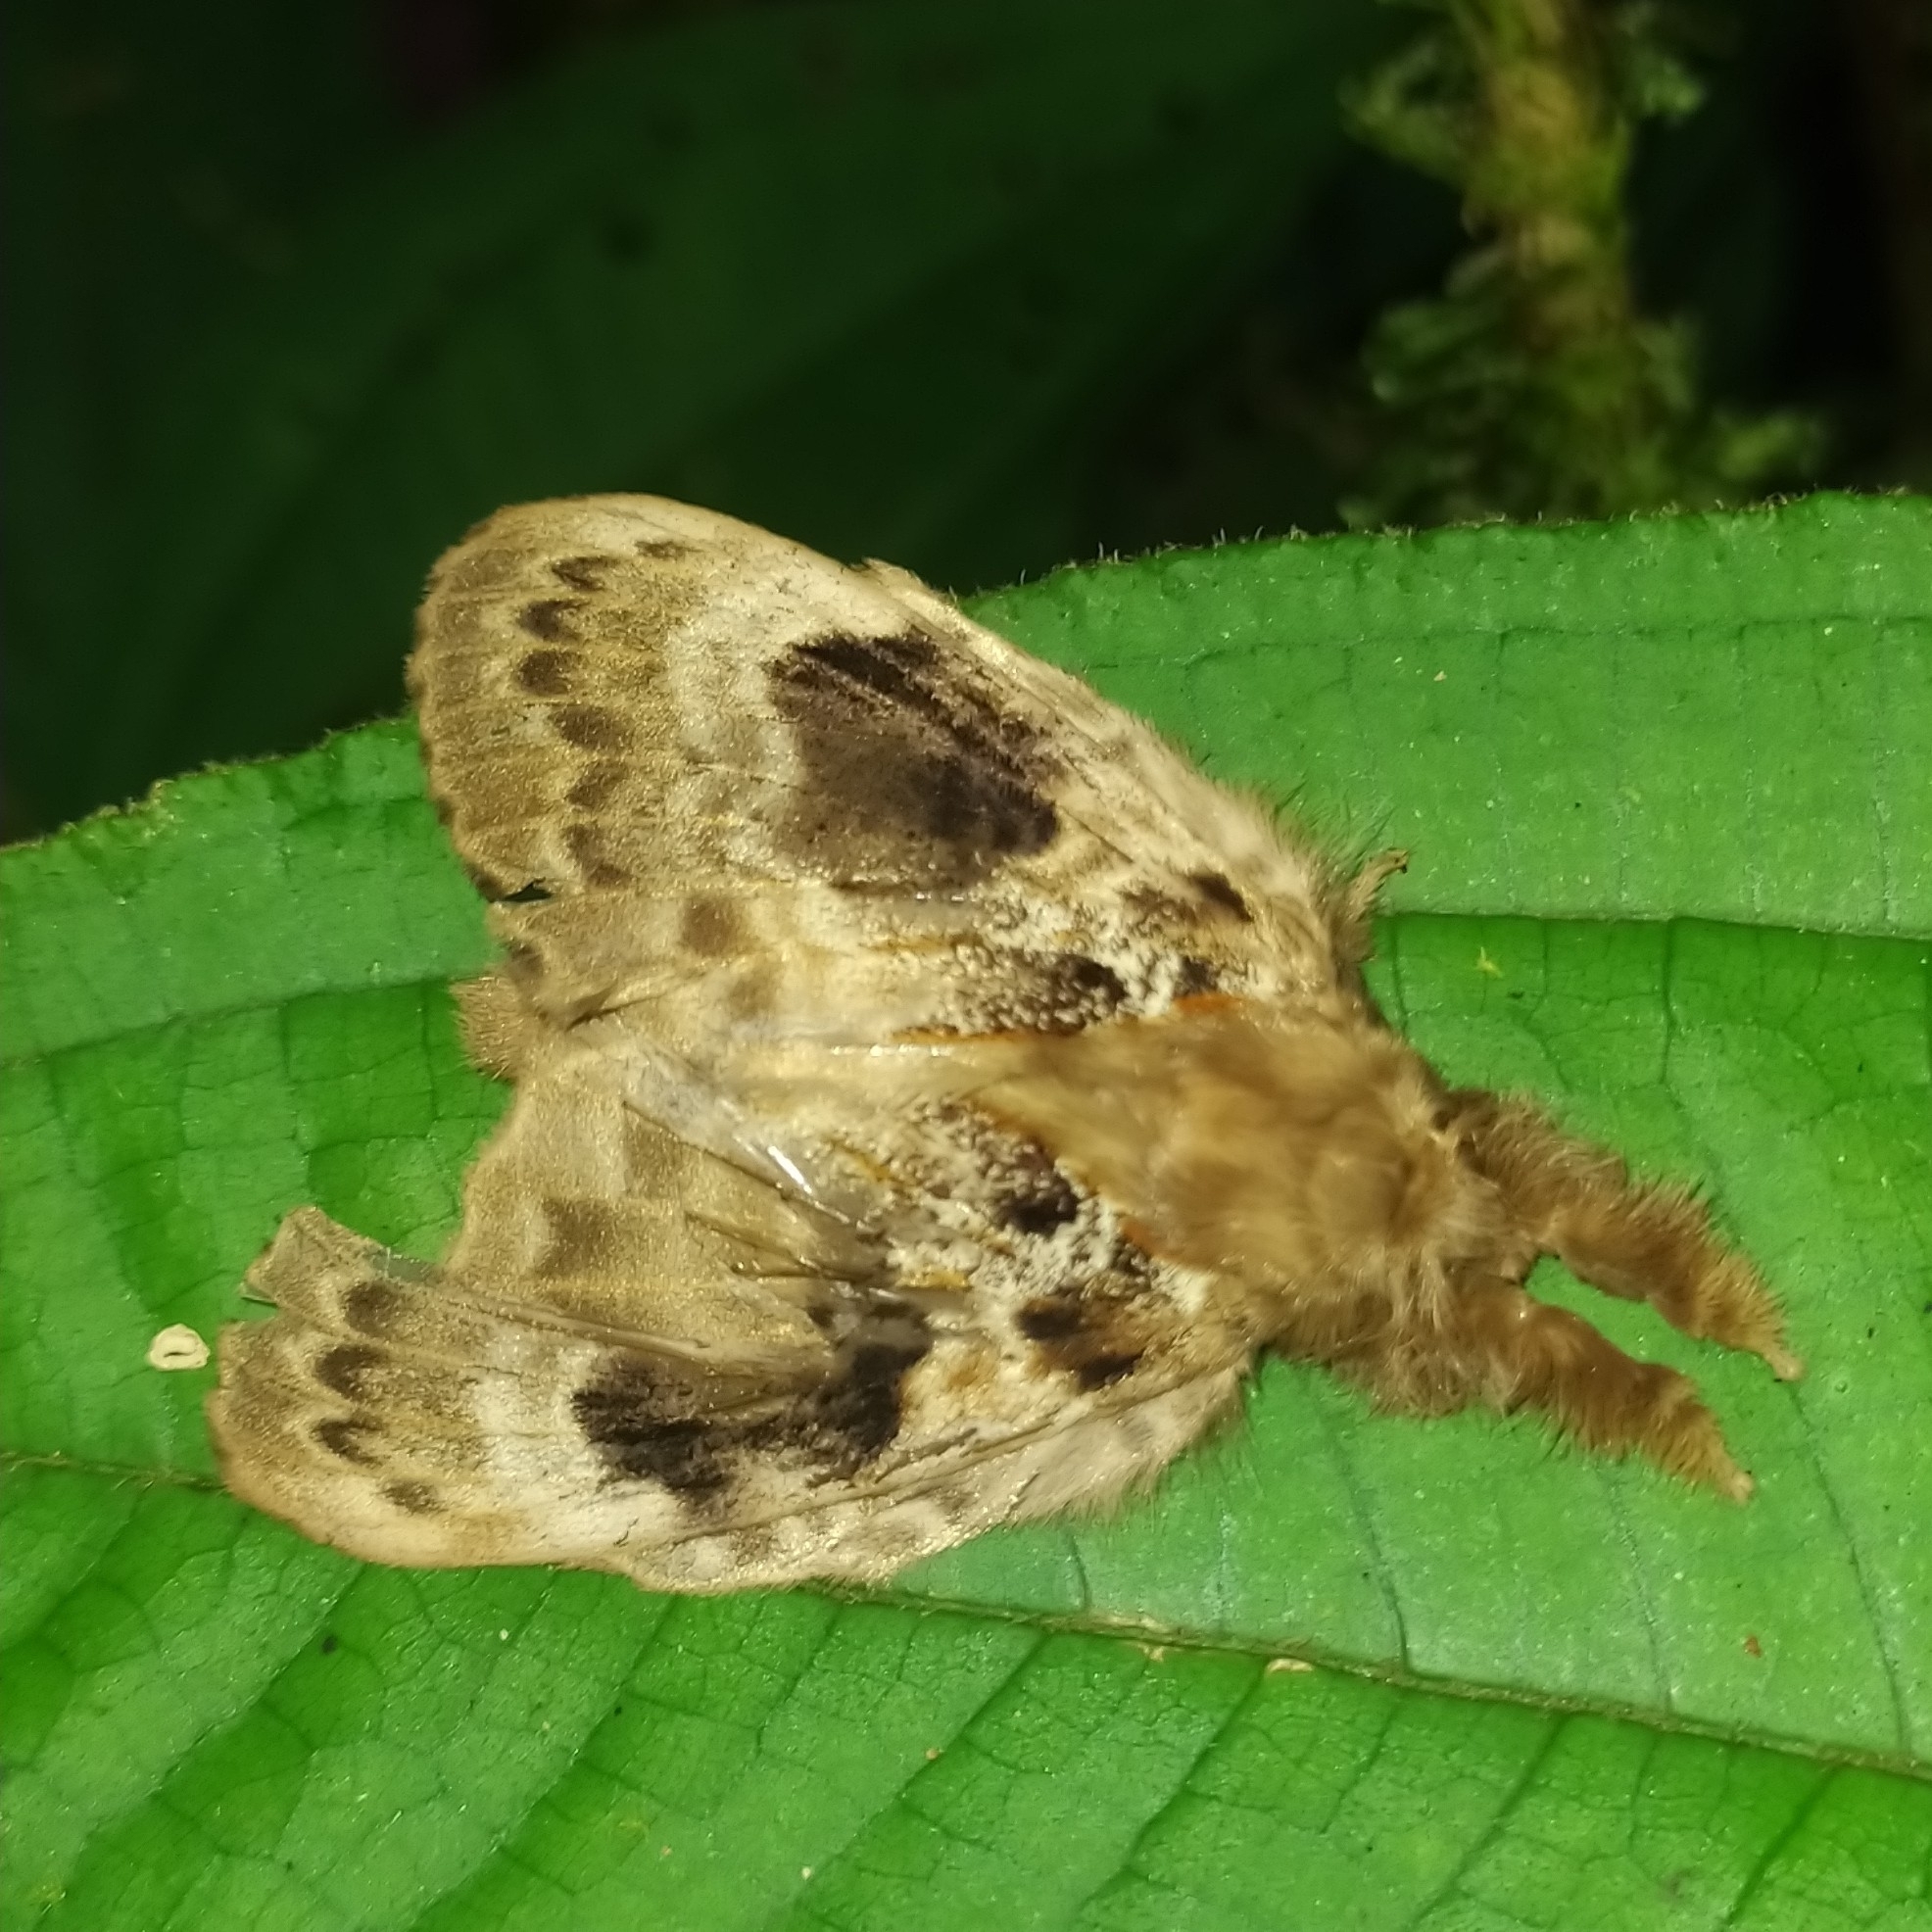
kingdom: Animalia
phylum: Arthropoda
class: Insecta
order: Lepidoptera
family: Lasiocampidae
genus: Euglyphis
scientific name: Euglyphis riphea
